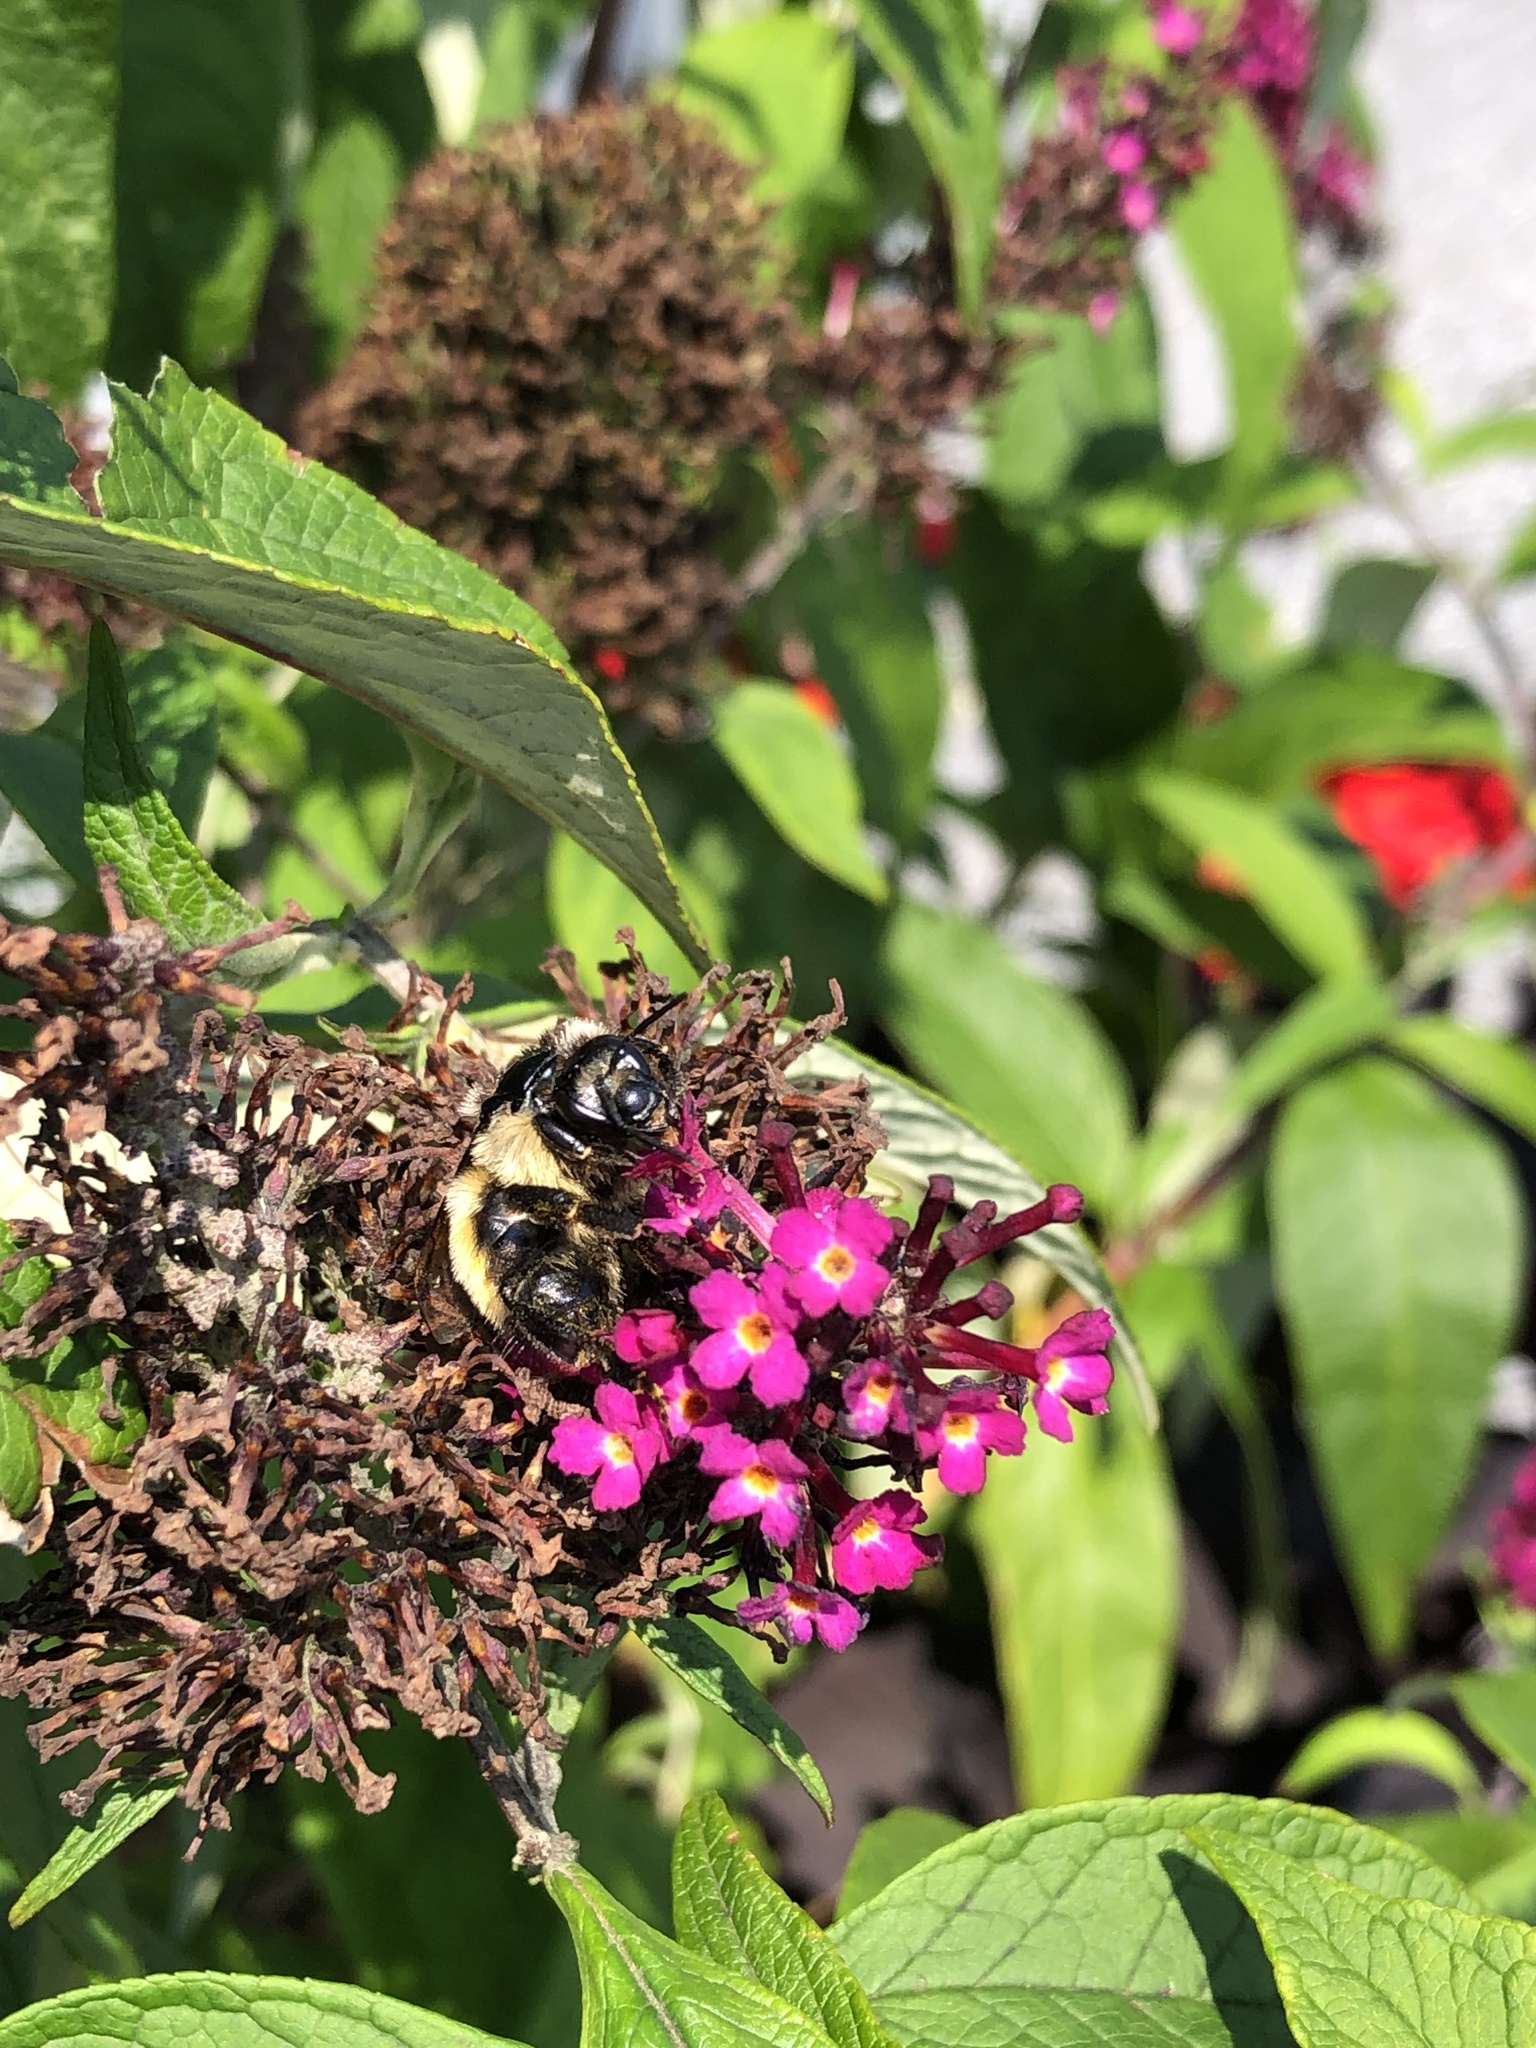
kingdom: Animalia
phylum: Arthropoda
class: Insecta
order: Hymenoptera
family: Apidae
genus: Bombus
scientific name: Bombus ternarius
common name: Tri-colored bumble bee
